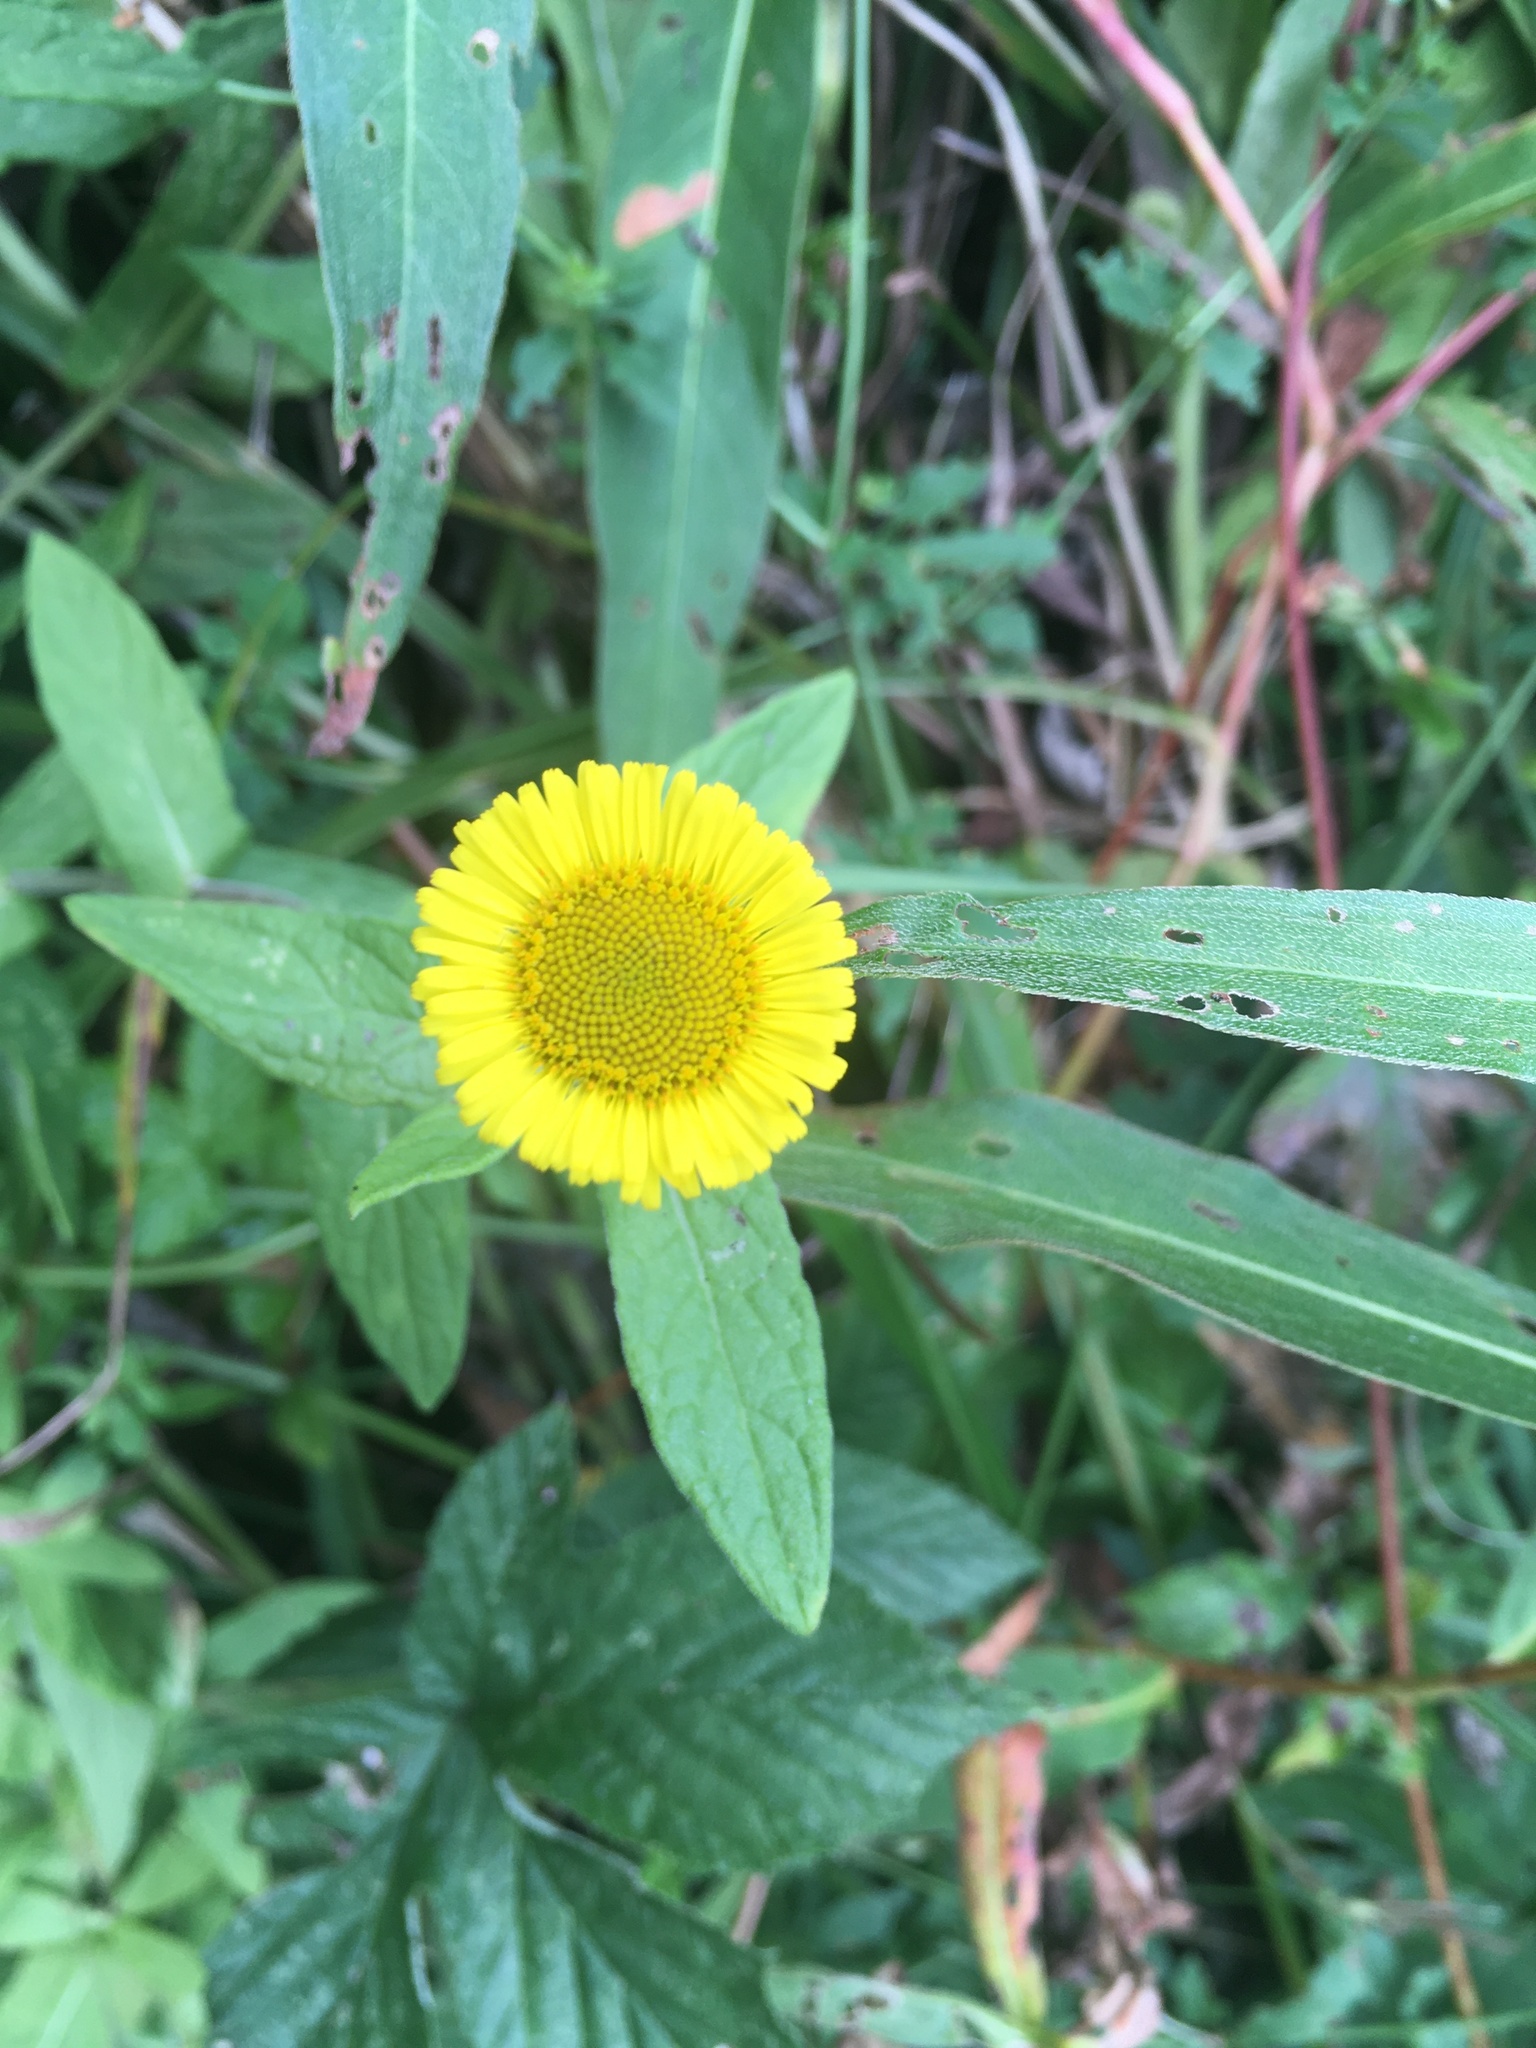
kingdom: Plantae
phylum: Tracheophyta
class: Magnoliopsida
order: Asterales
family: Asteraceae
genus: Pulicaria
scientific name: Pulicaria dysenterica
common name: Common fleabane
